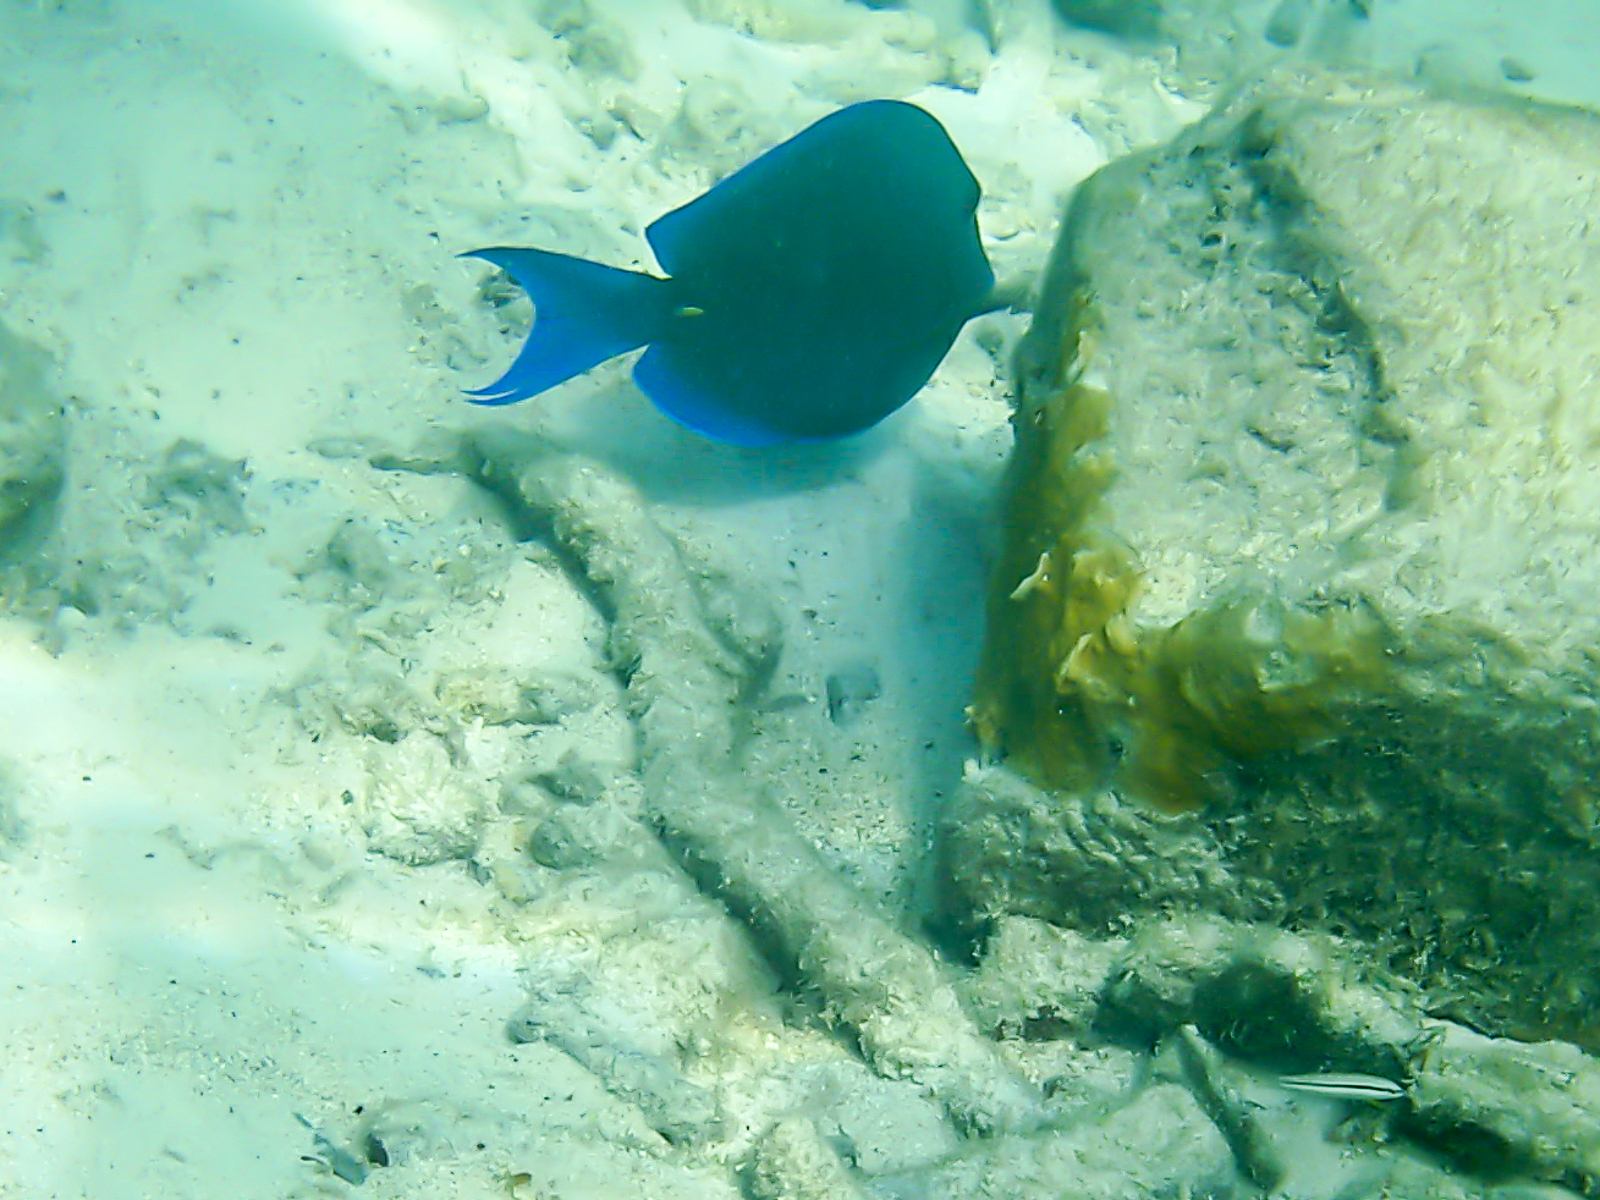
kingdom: Animalia
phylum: Chordata
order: Perciformes
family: Acanthuridae
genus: Acanthurus
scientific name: Acanthurus coeruleus
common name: Blue tang
